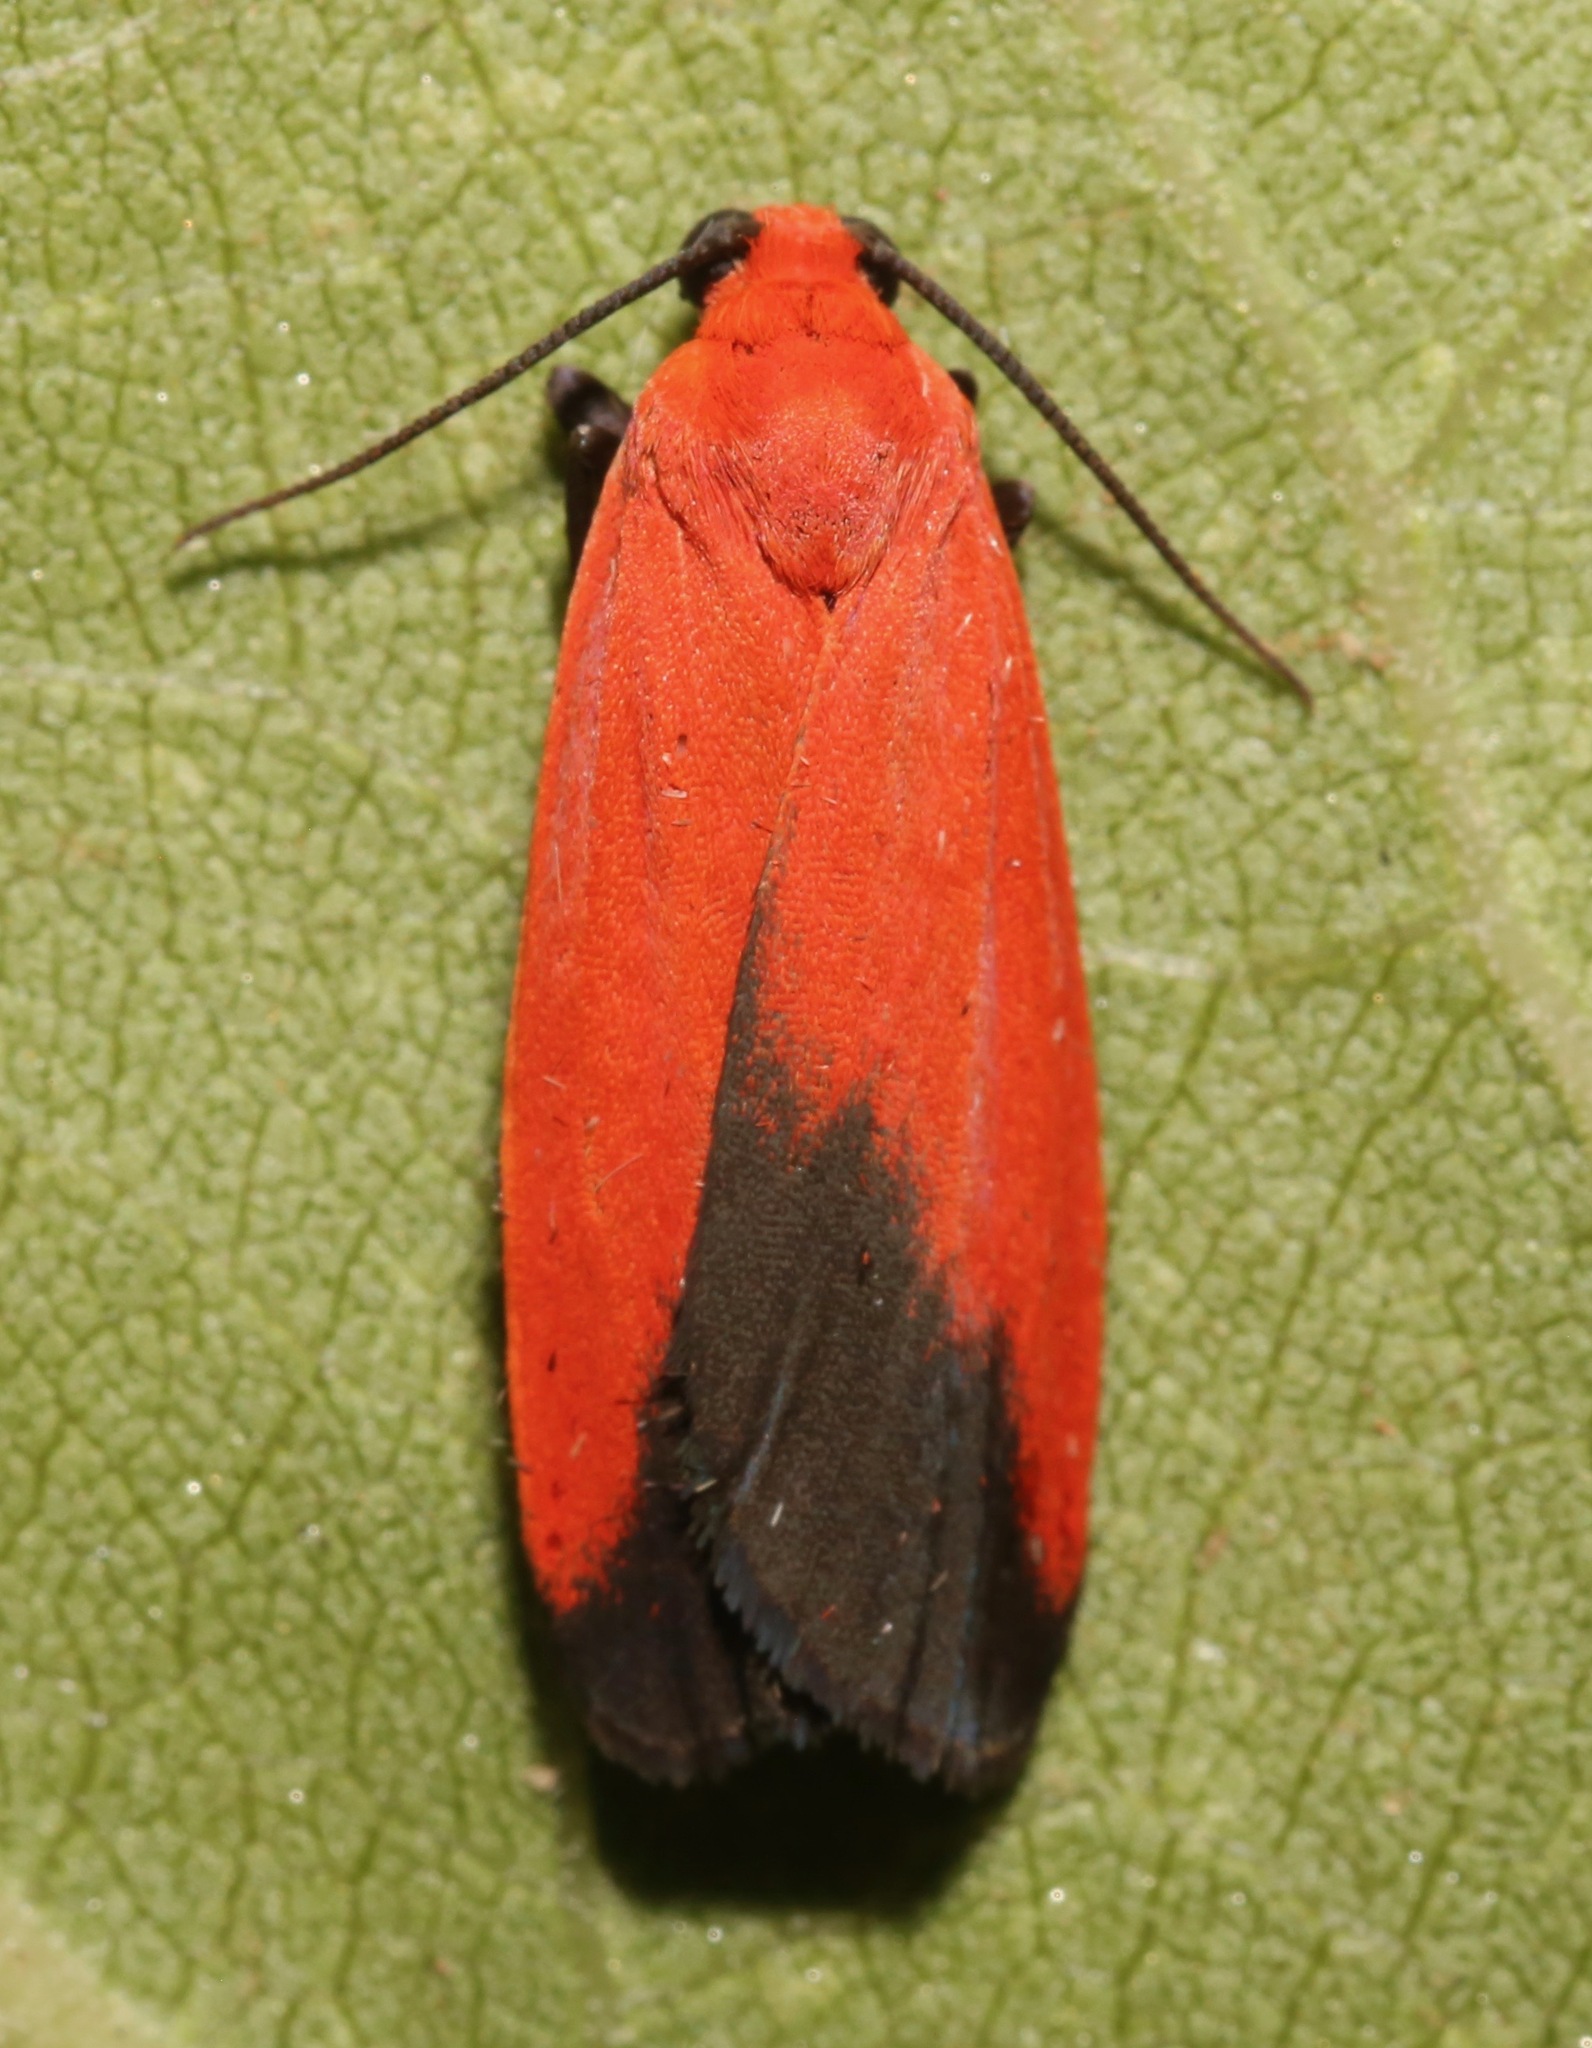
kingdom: Animalia
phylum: Arthropoda
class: Insecta
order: Lepidoptera
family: Erebidae
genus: Ptychoglene
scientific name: Ptychoglene coccinea
